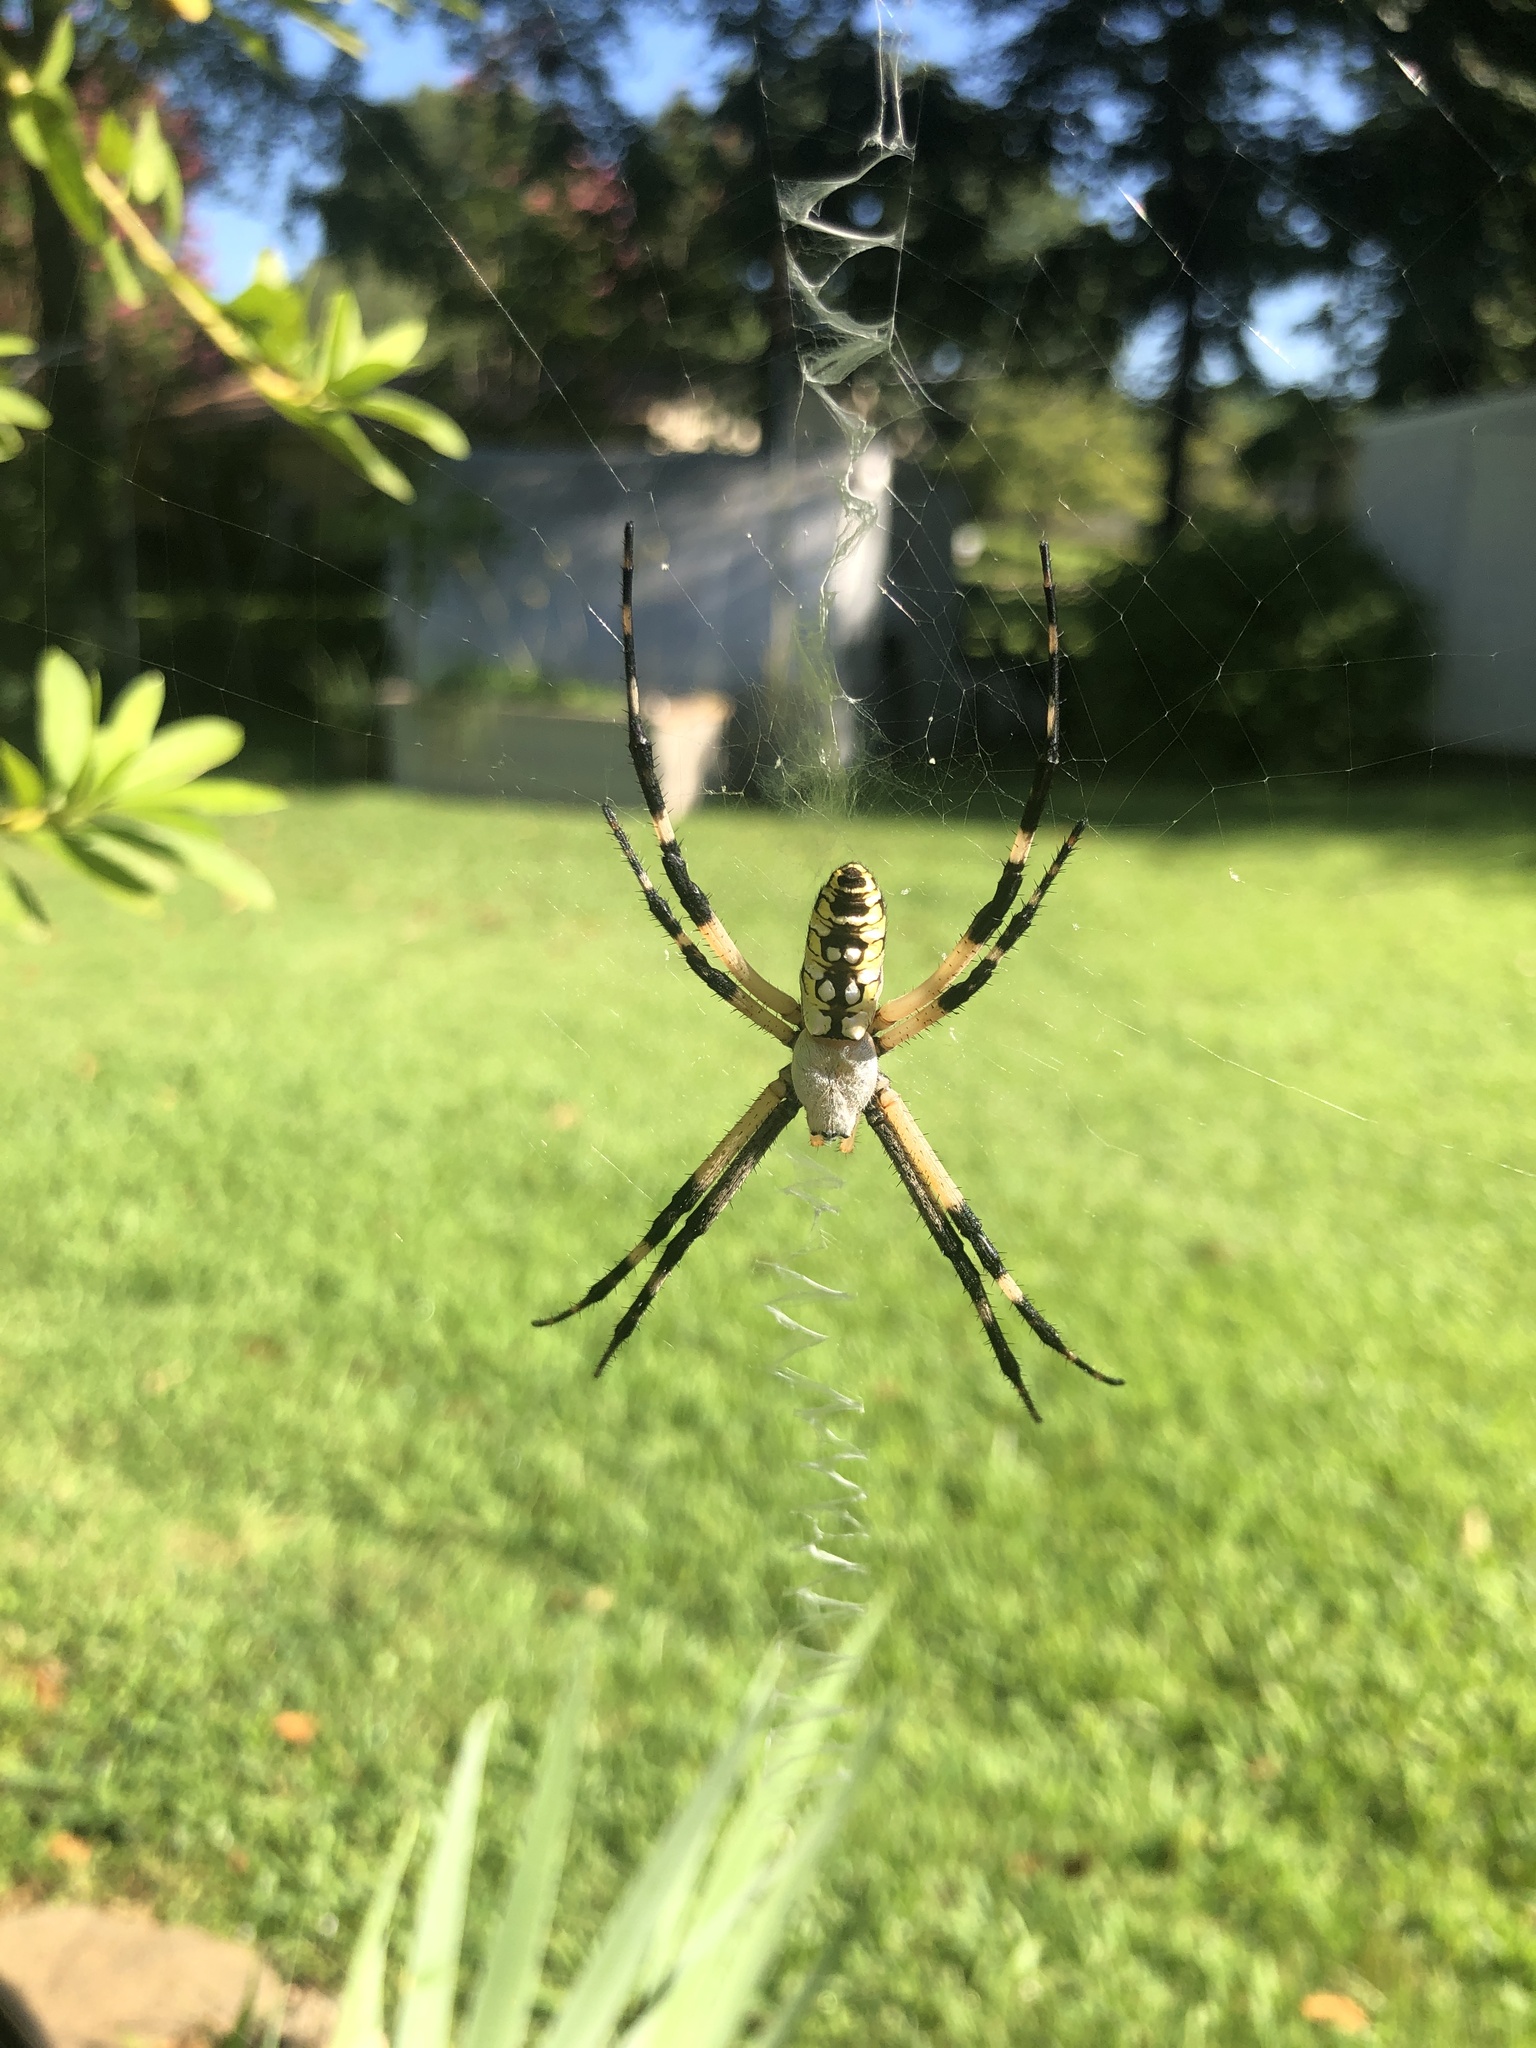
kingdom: Animalia
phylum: Arthropoda
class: Arachnida
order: Araneae
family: Araneidae
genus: Argiope
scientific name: Argiope aurantia
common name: Orb weavers
